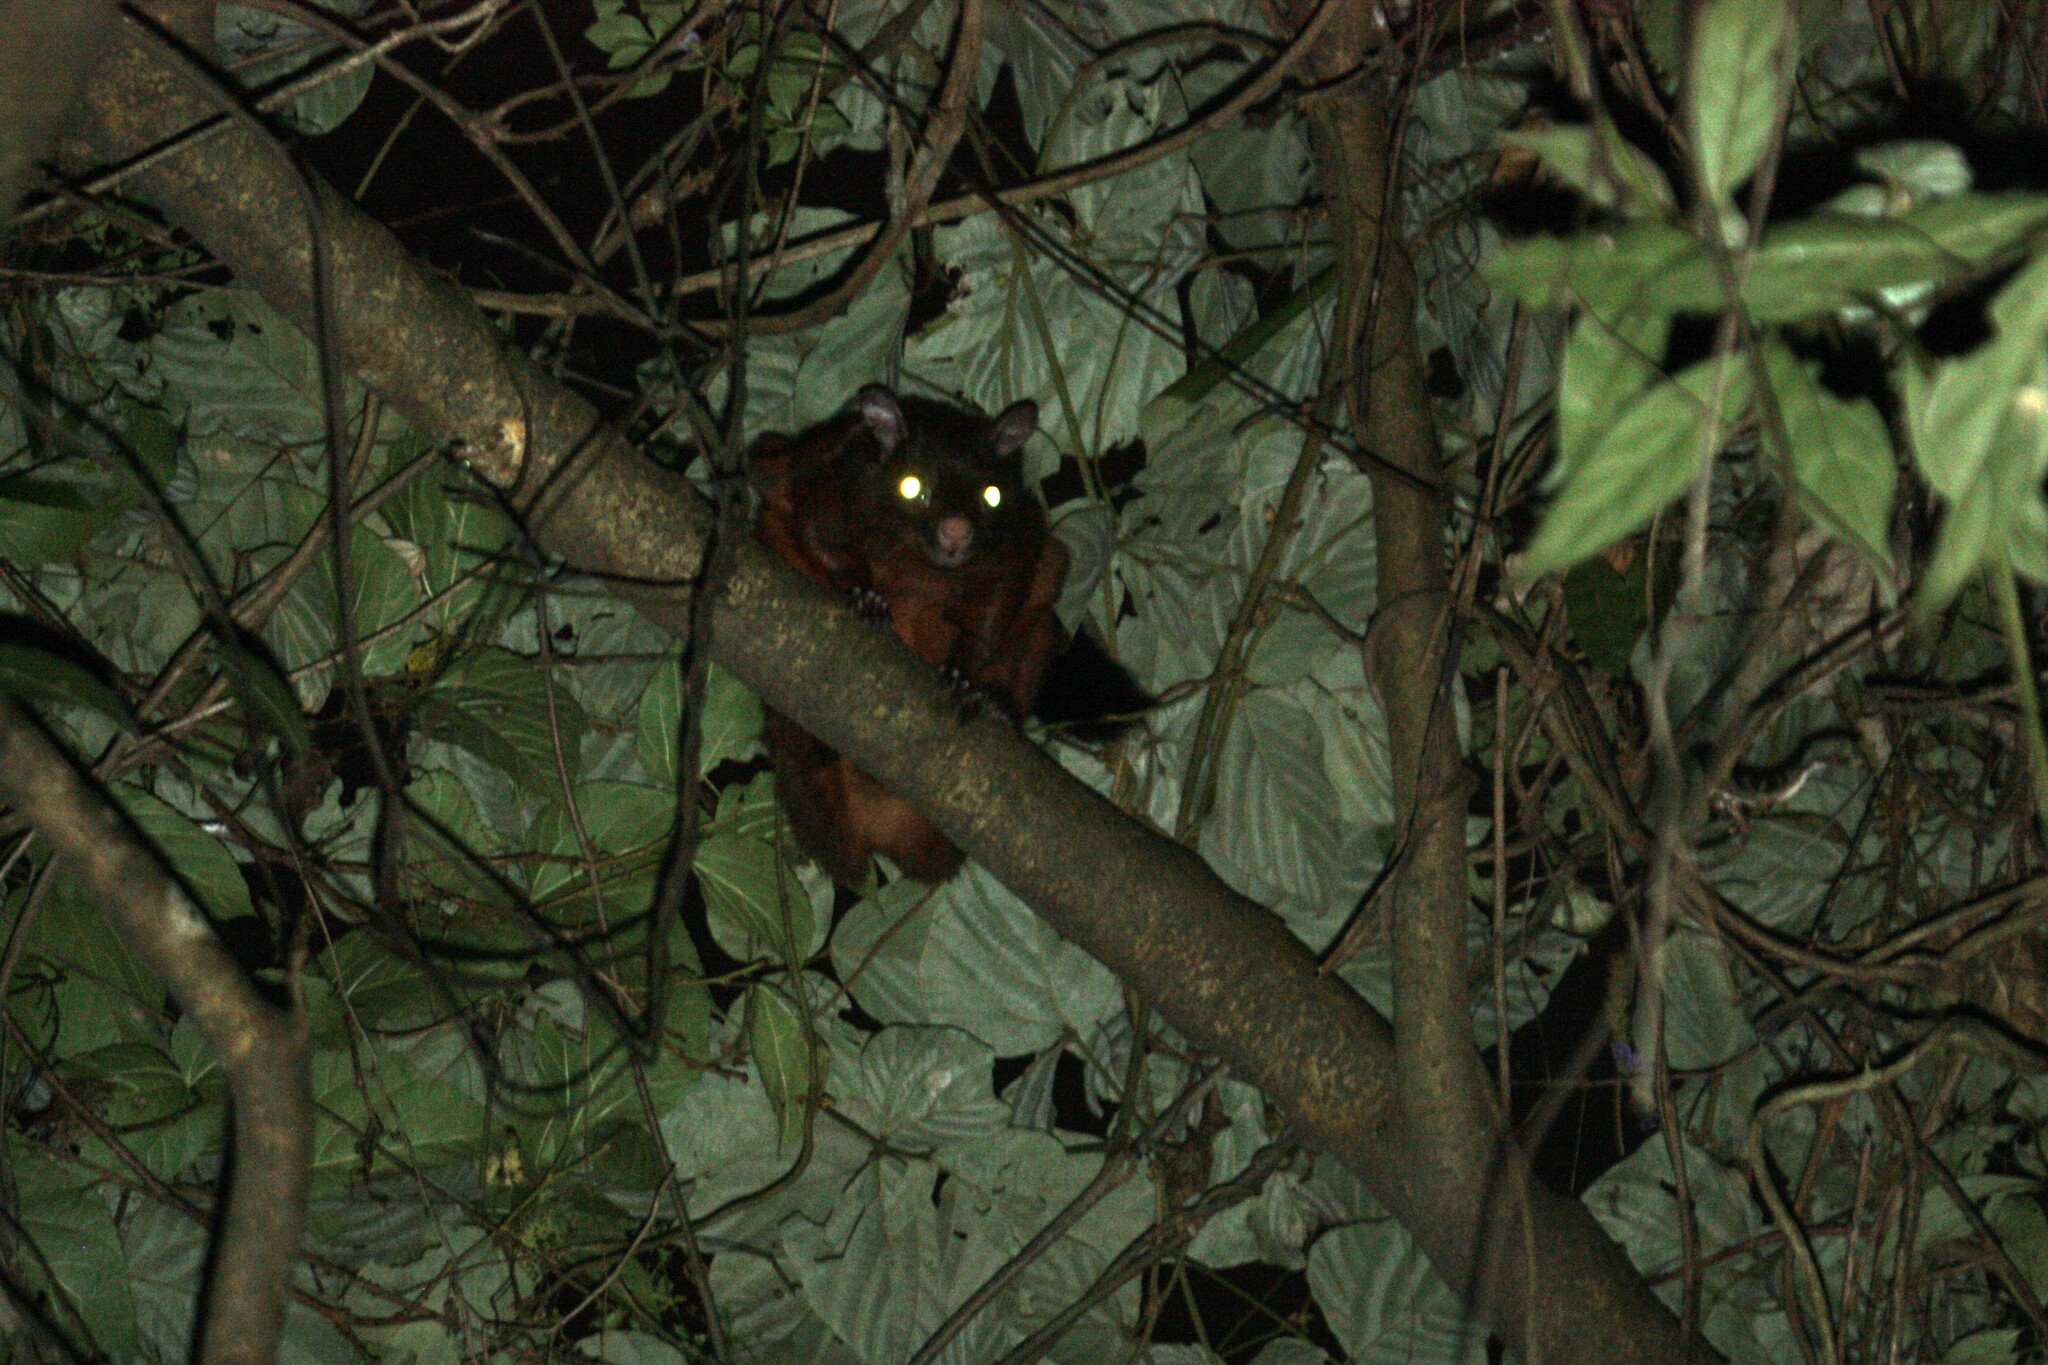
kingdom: Animalia
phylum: Chordata
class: Mammalia
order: Rodentia
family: Sciuridae
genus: Petaurista
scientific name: Petaurista
